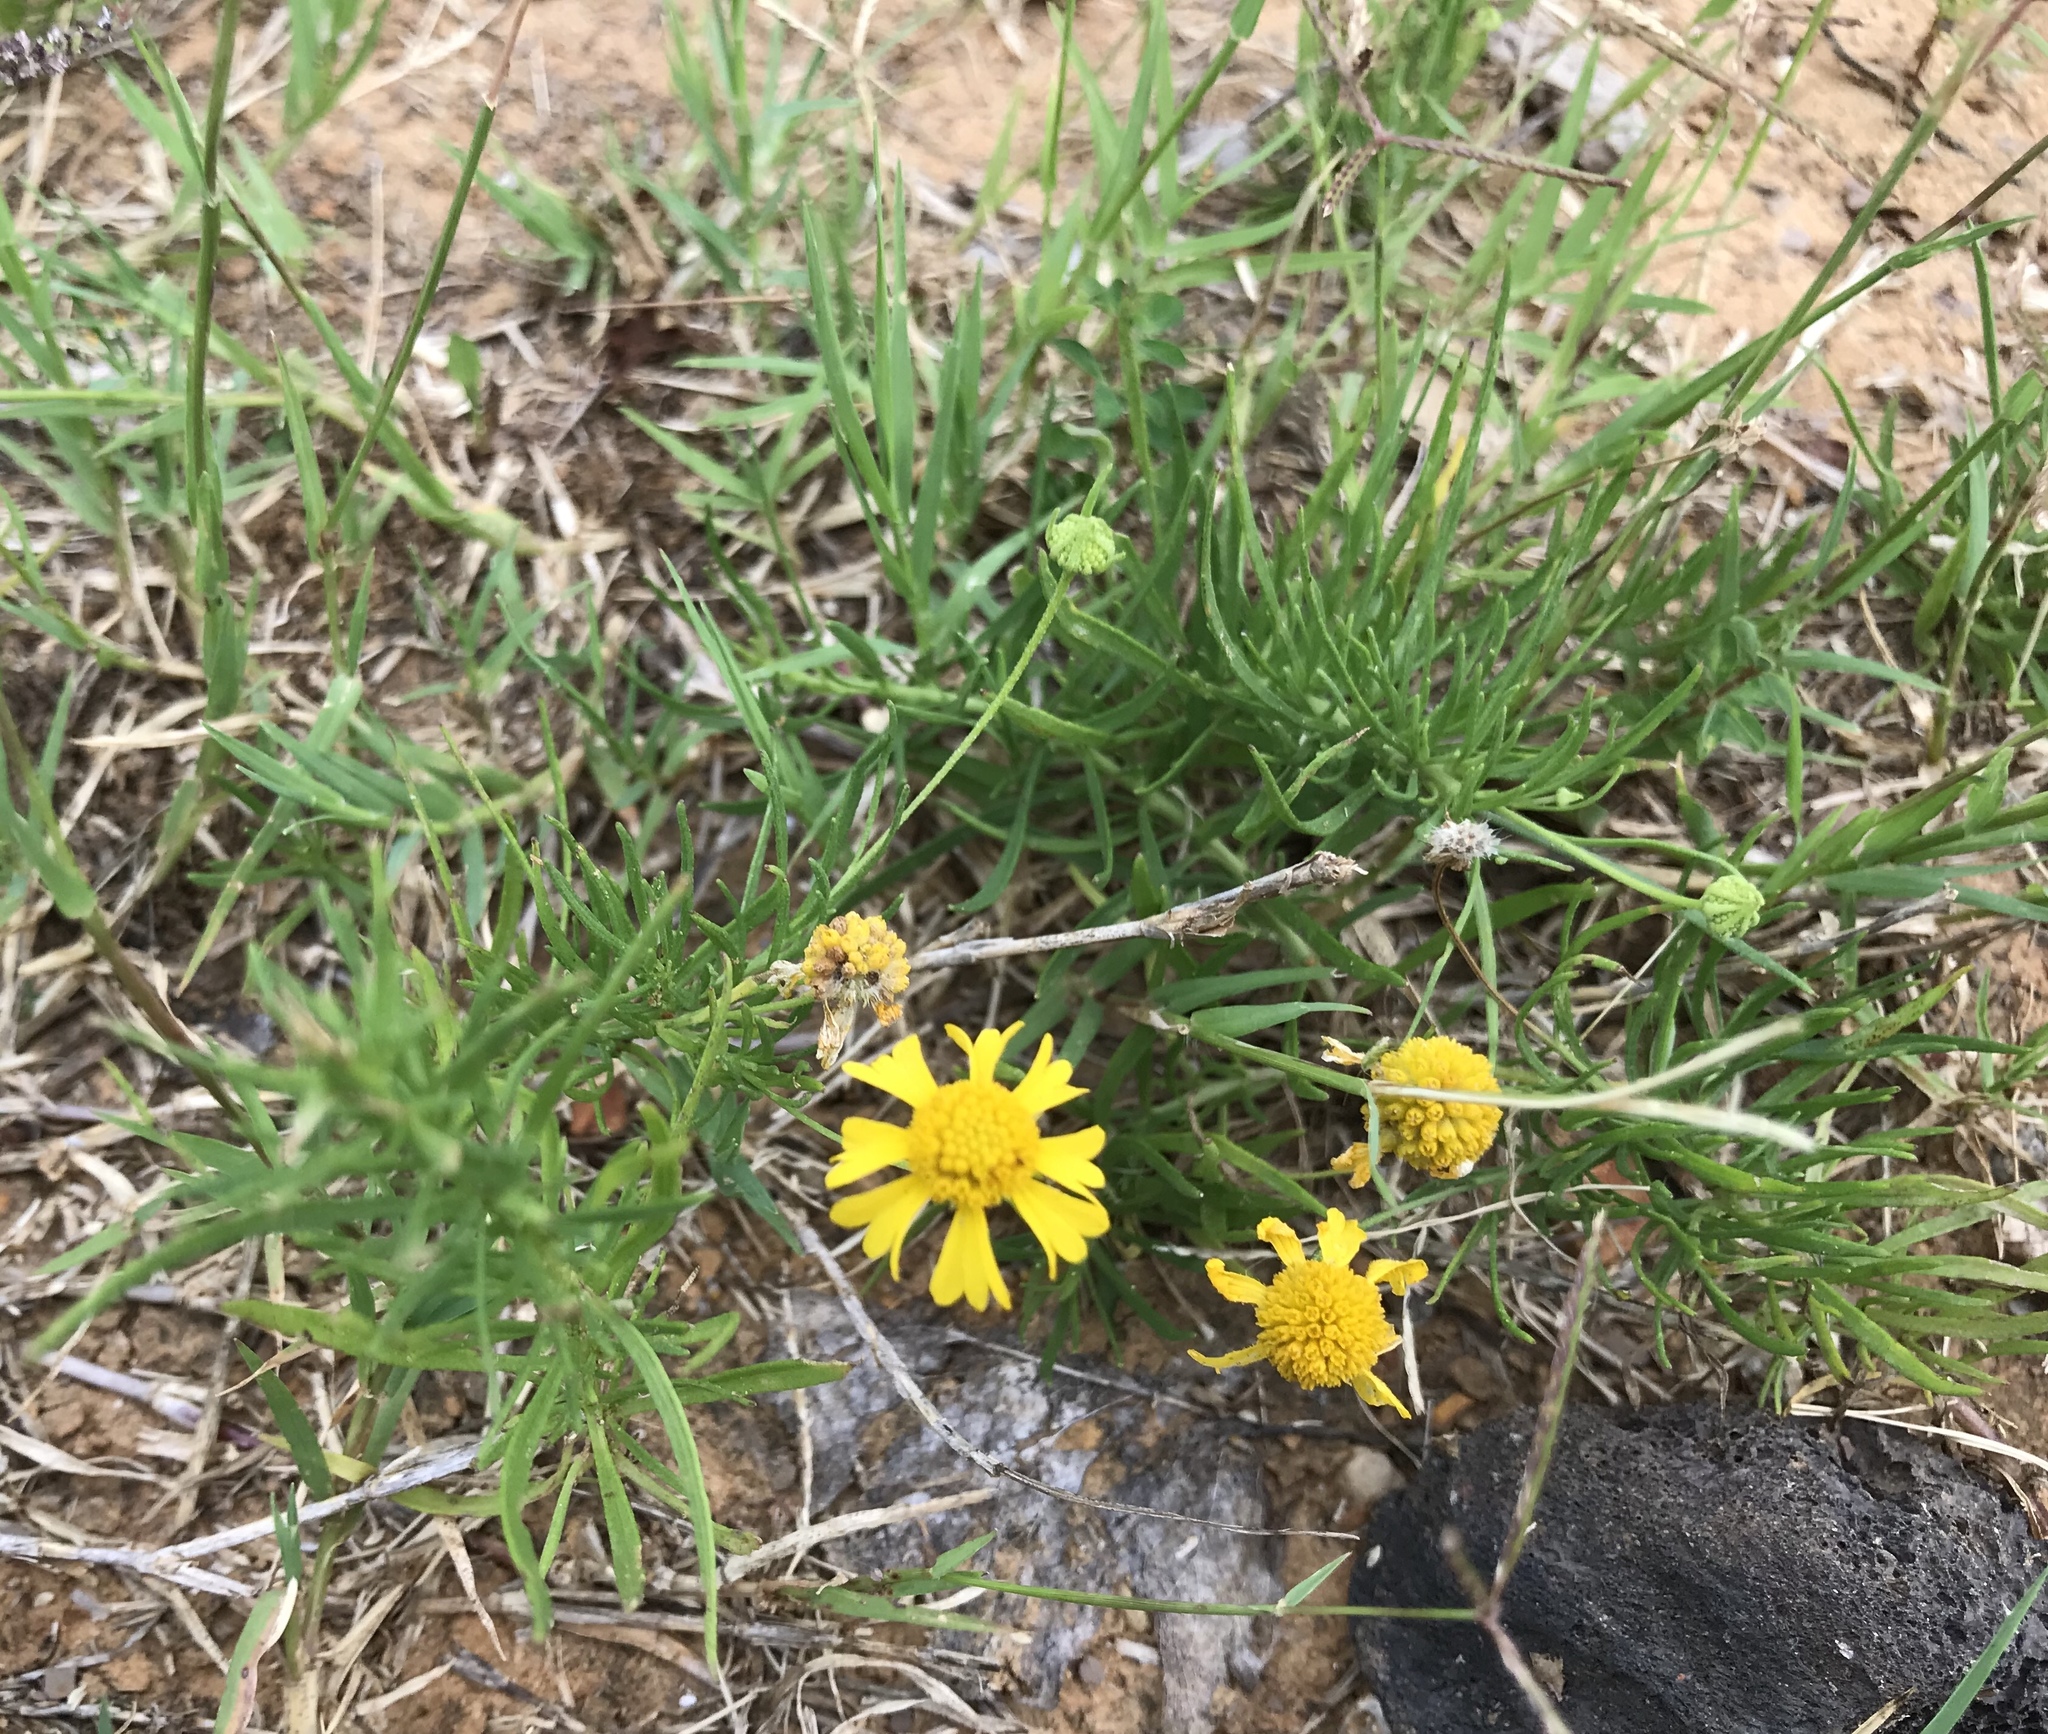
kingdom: Plantae
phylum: Tracheophyta
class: Magnoliopsida
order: Asterales
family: Asteraceae
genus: Helenium
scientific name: Helenium amarum
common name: Bitter sneezeweed
